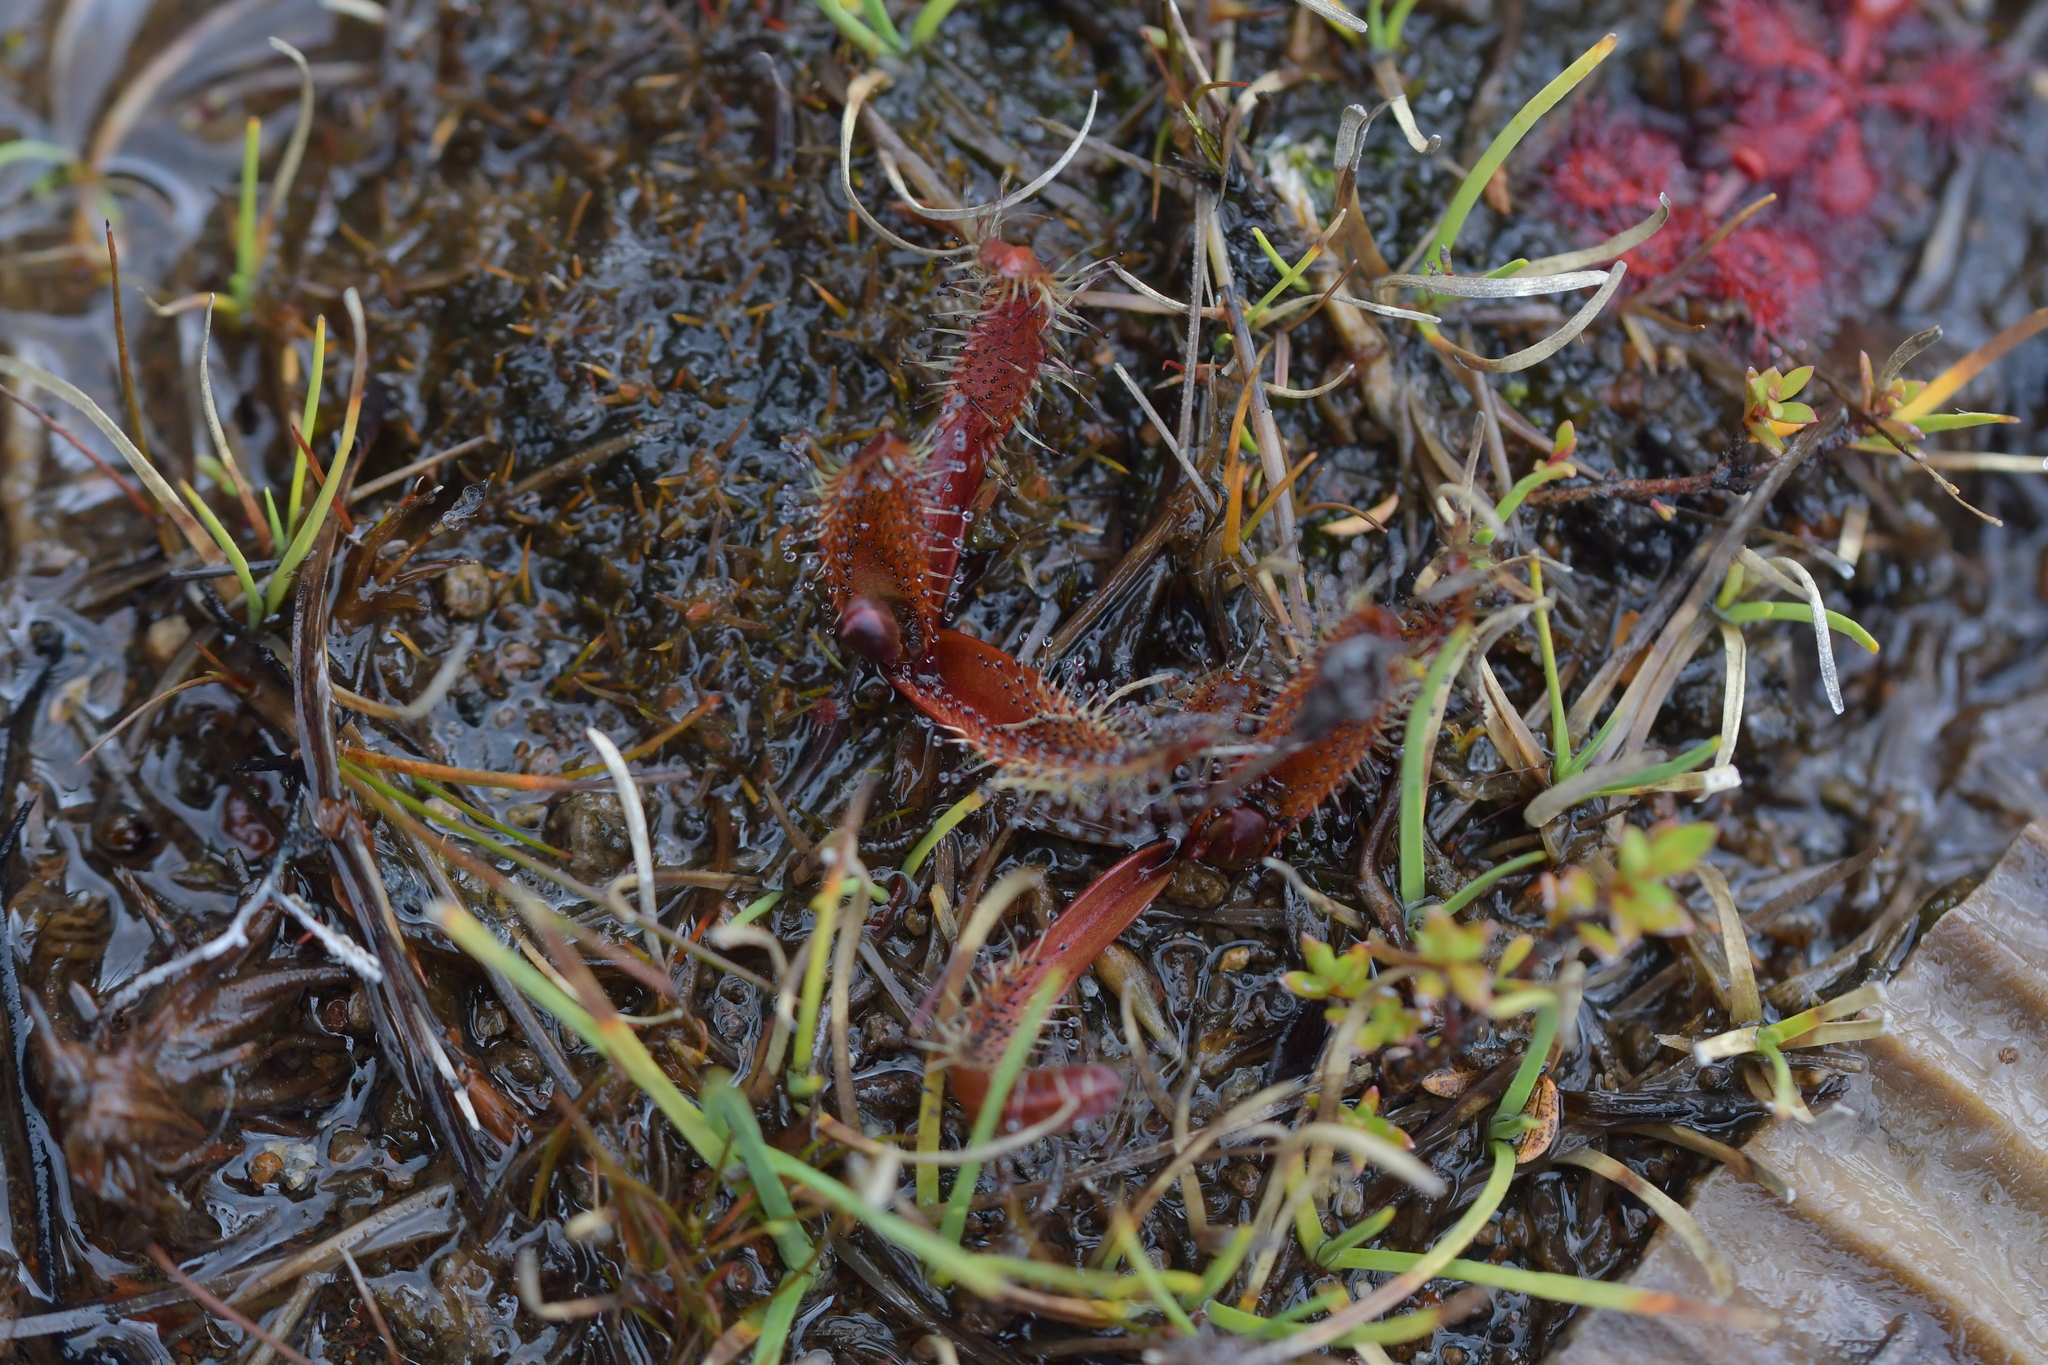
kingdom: Plantae
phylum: Tracheophyta
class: Magnoliopsida
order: Caryophyllales
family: Droseraceae
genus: Drosera
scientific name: Drosera arcturi
